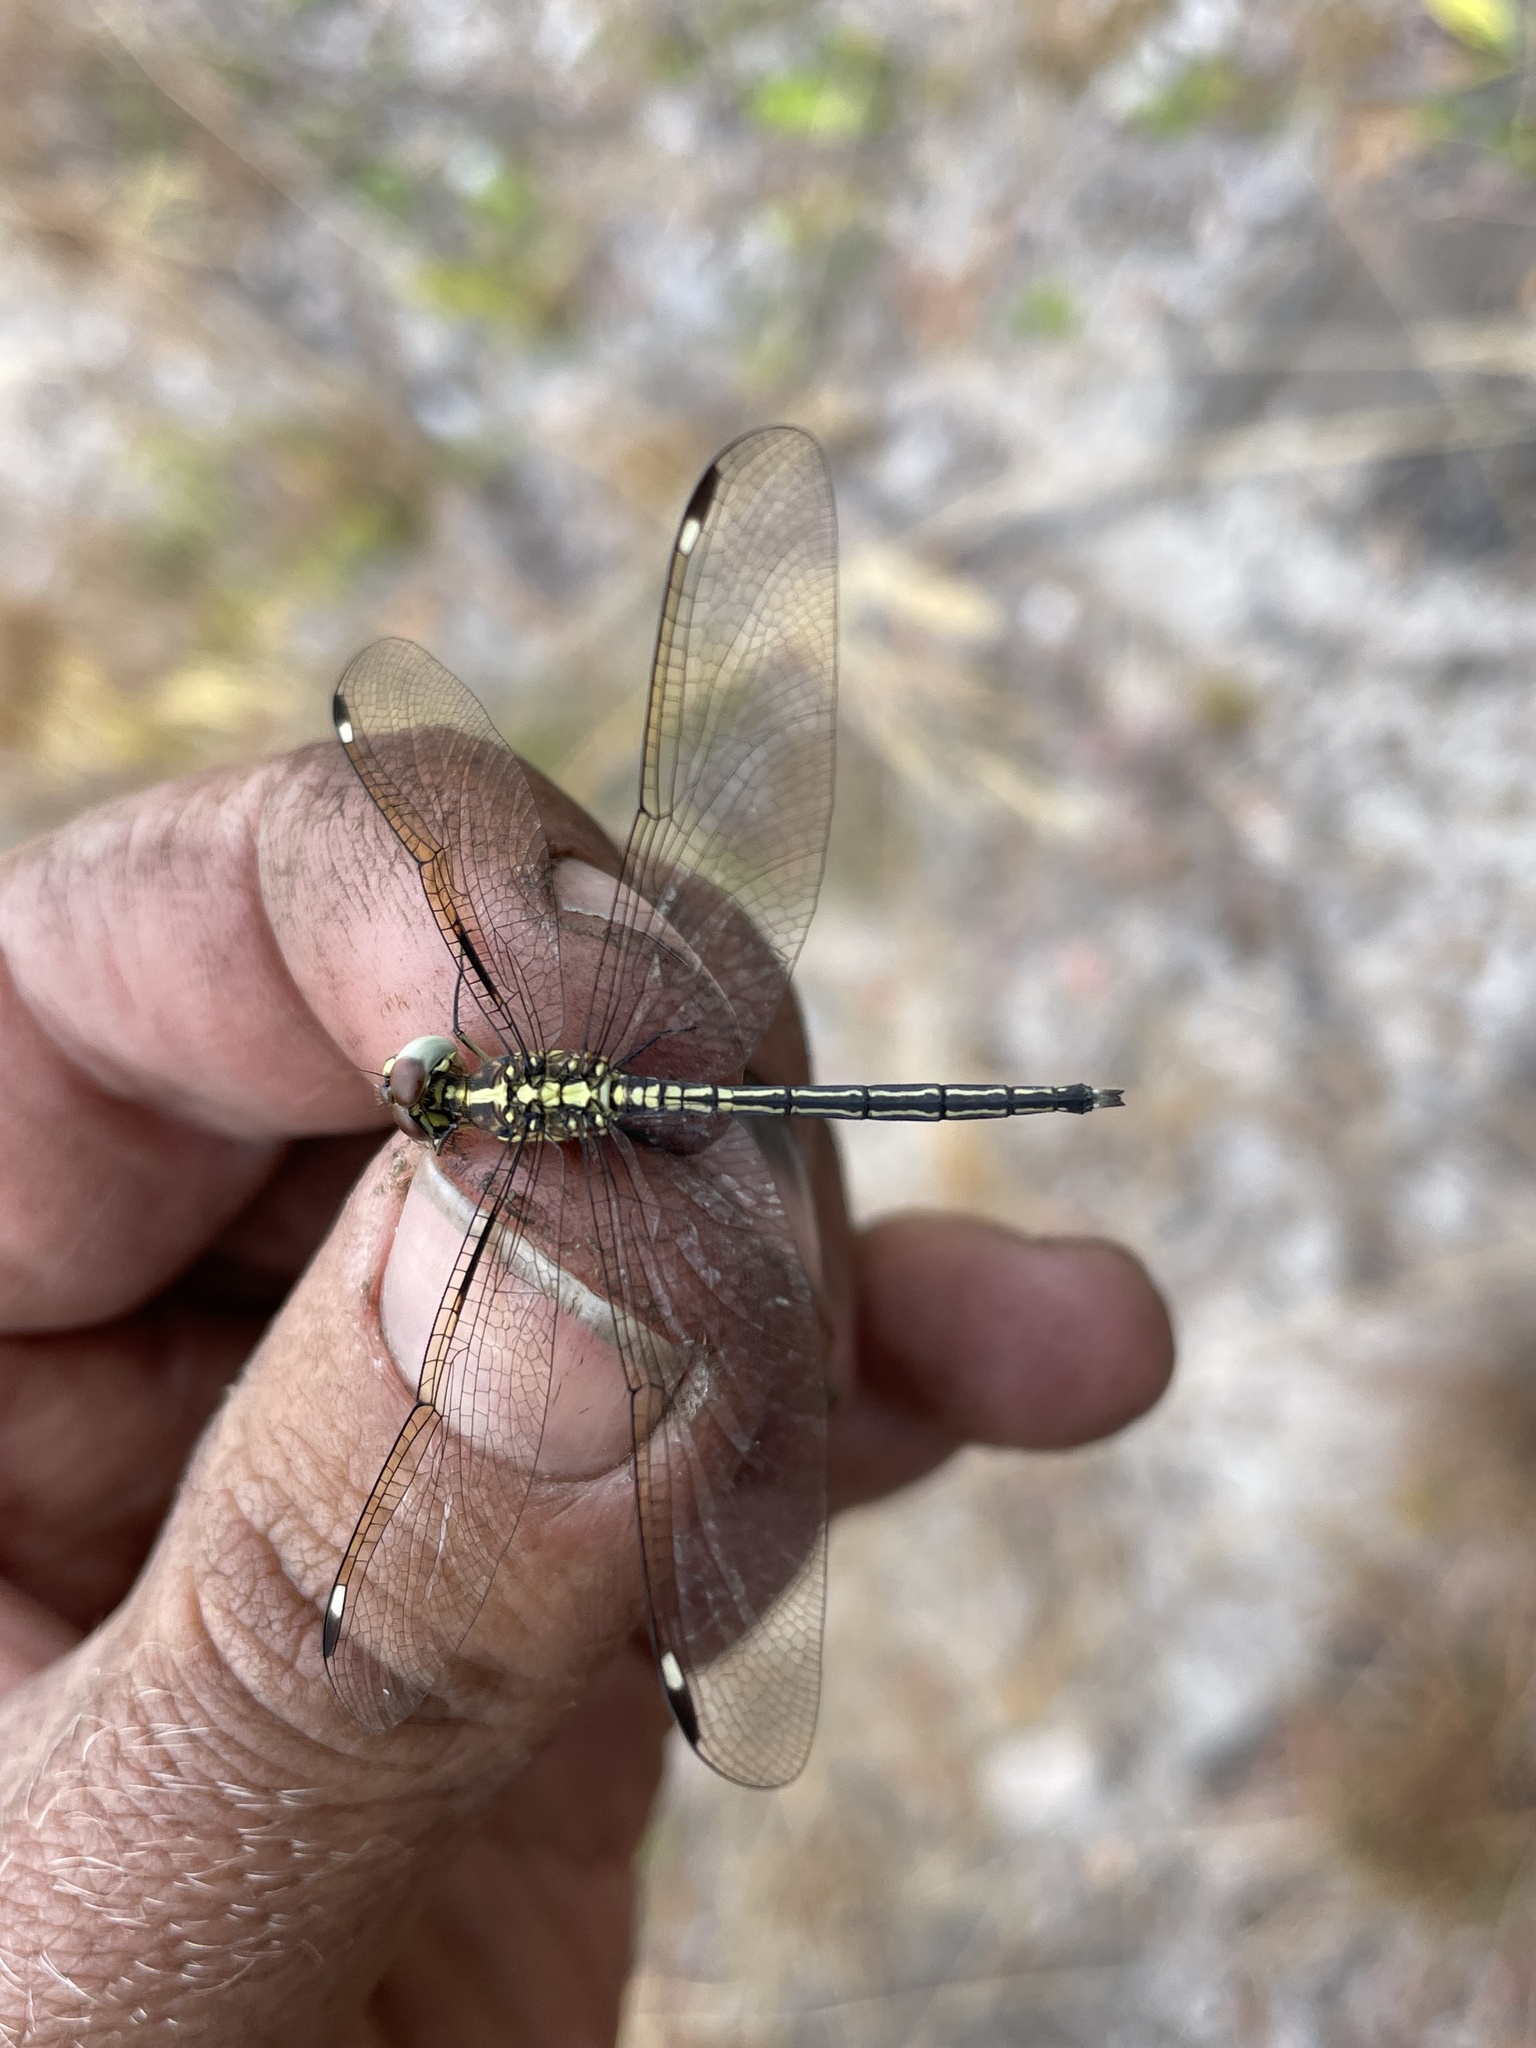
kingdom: Animalia
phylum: Arthropoda
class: Insecta
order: Odonata
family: Libellulidae
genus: Hemistigma
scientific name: Hemistigma albipunctum
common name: African pied-spot
